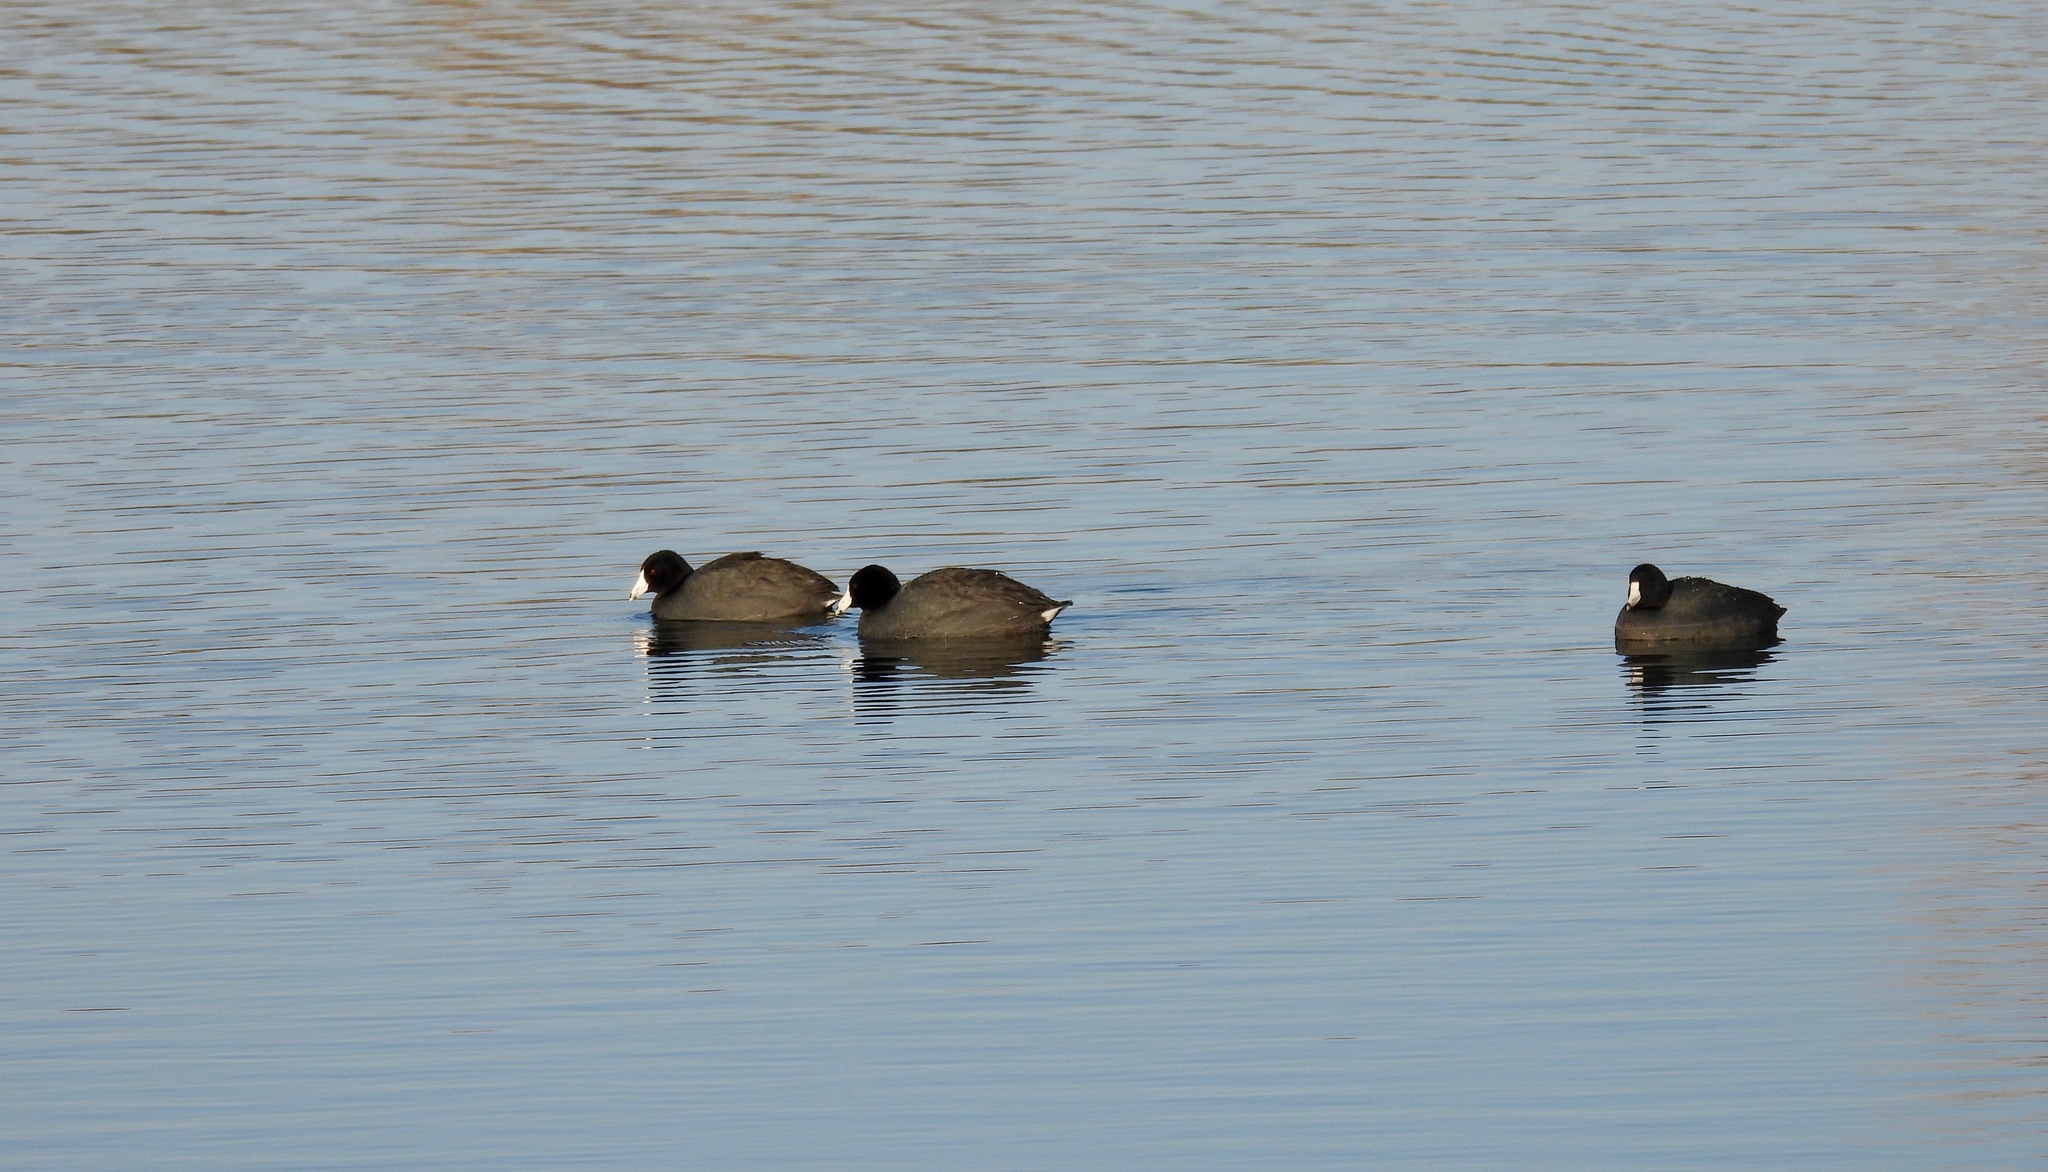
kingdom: Animalia
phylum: Chordata
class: Aves
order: Gruiformes
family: Rallidae
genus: Fulica
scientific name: Fulica americana
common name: American coot
